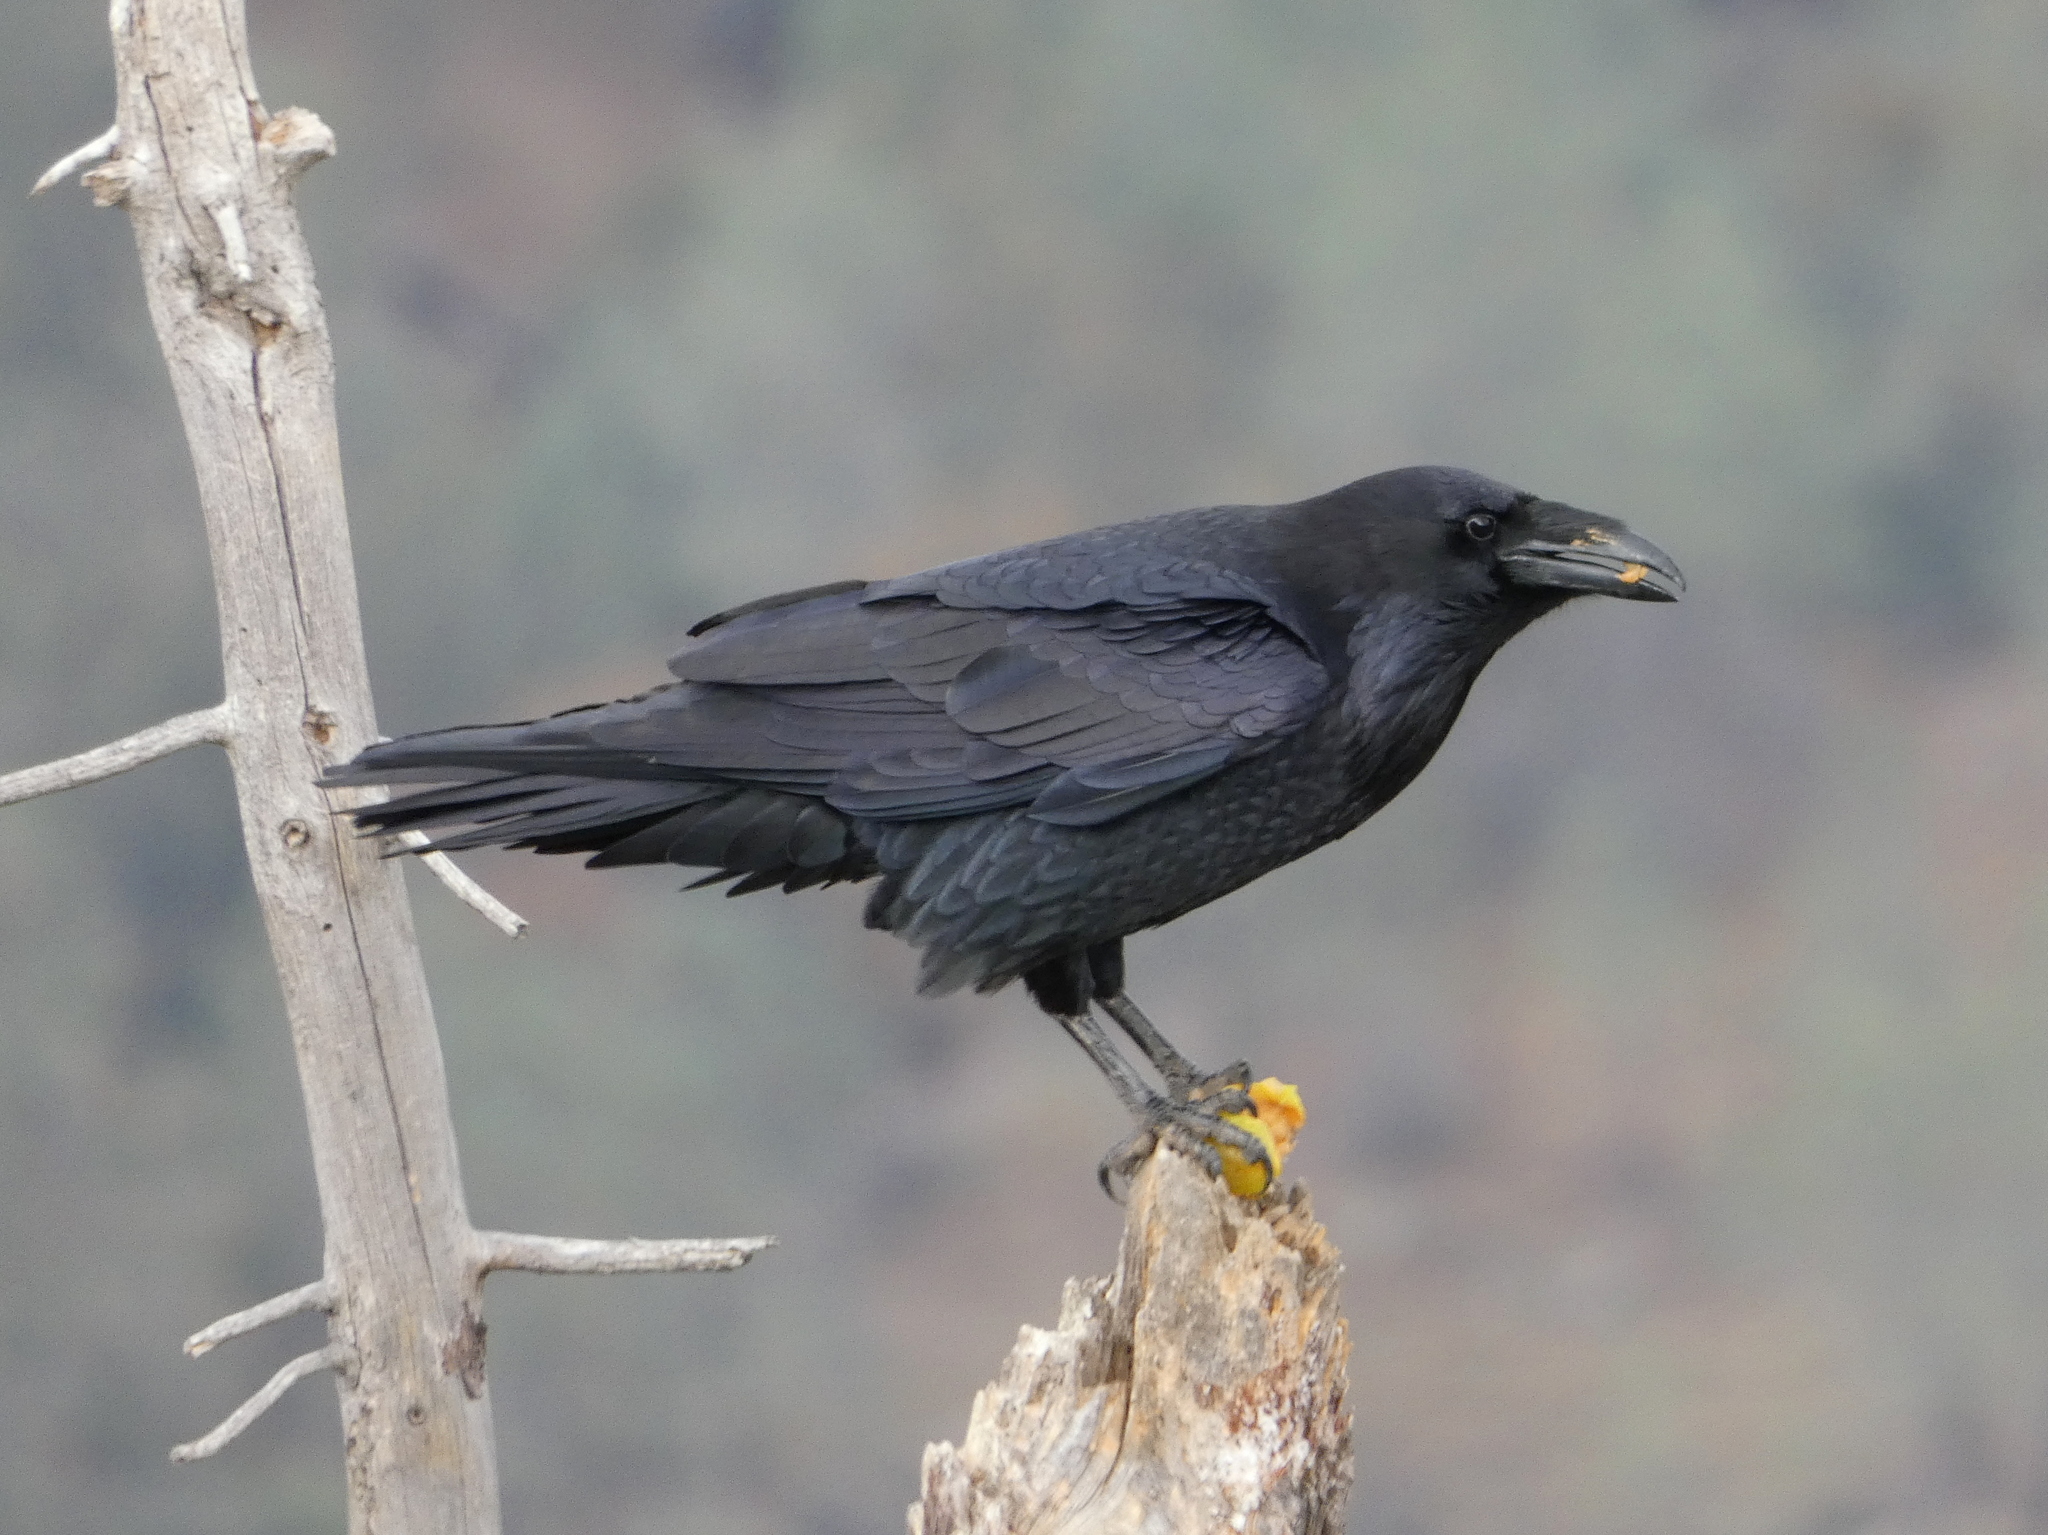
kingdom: Animalia
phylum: Chordata
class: Aves
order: Passeriformes
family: Corvidae
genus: Corvus
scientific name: Corvus corax
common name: Common raven
